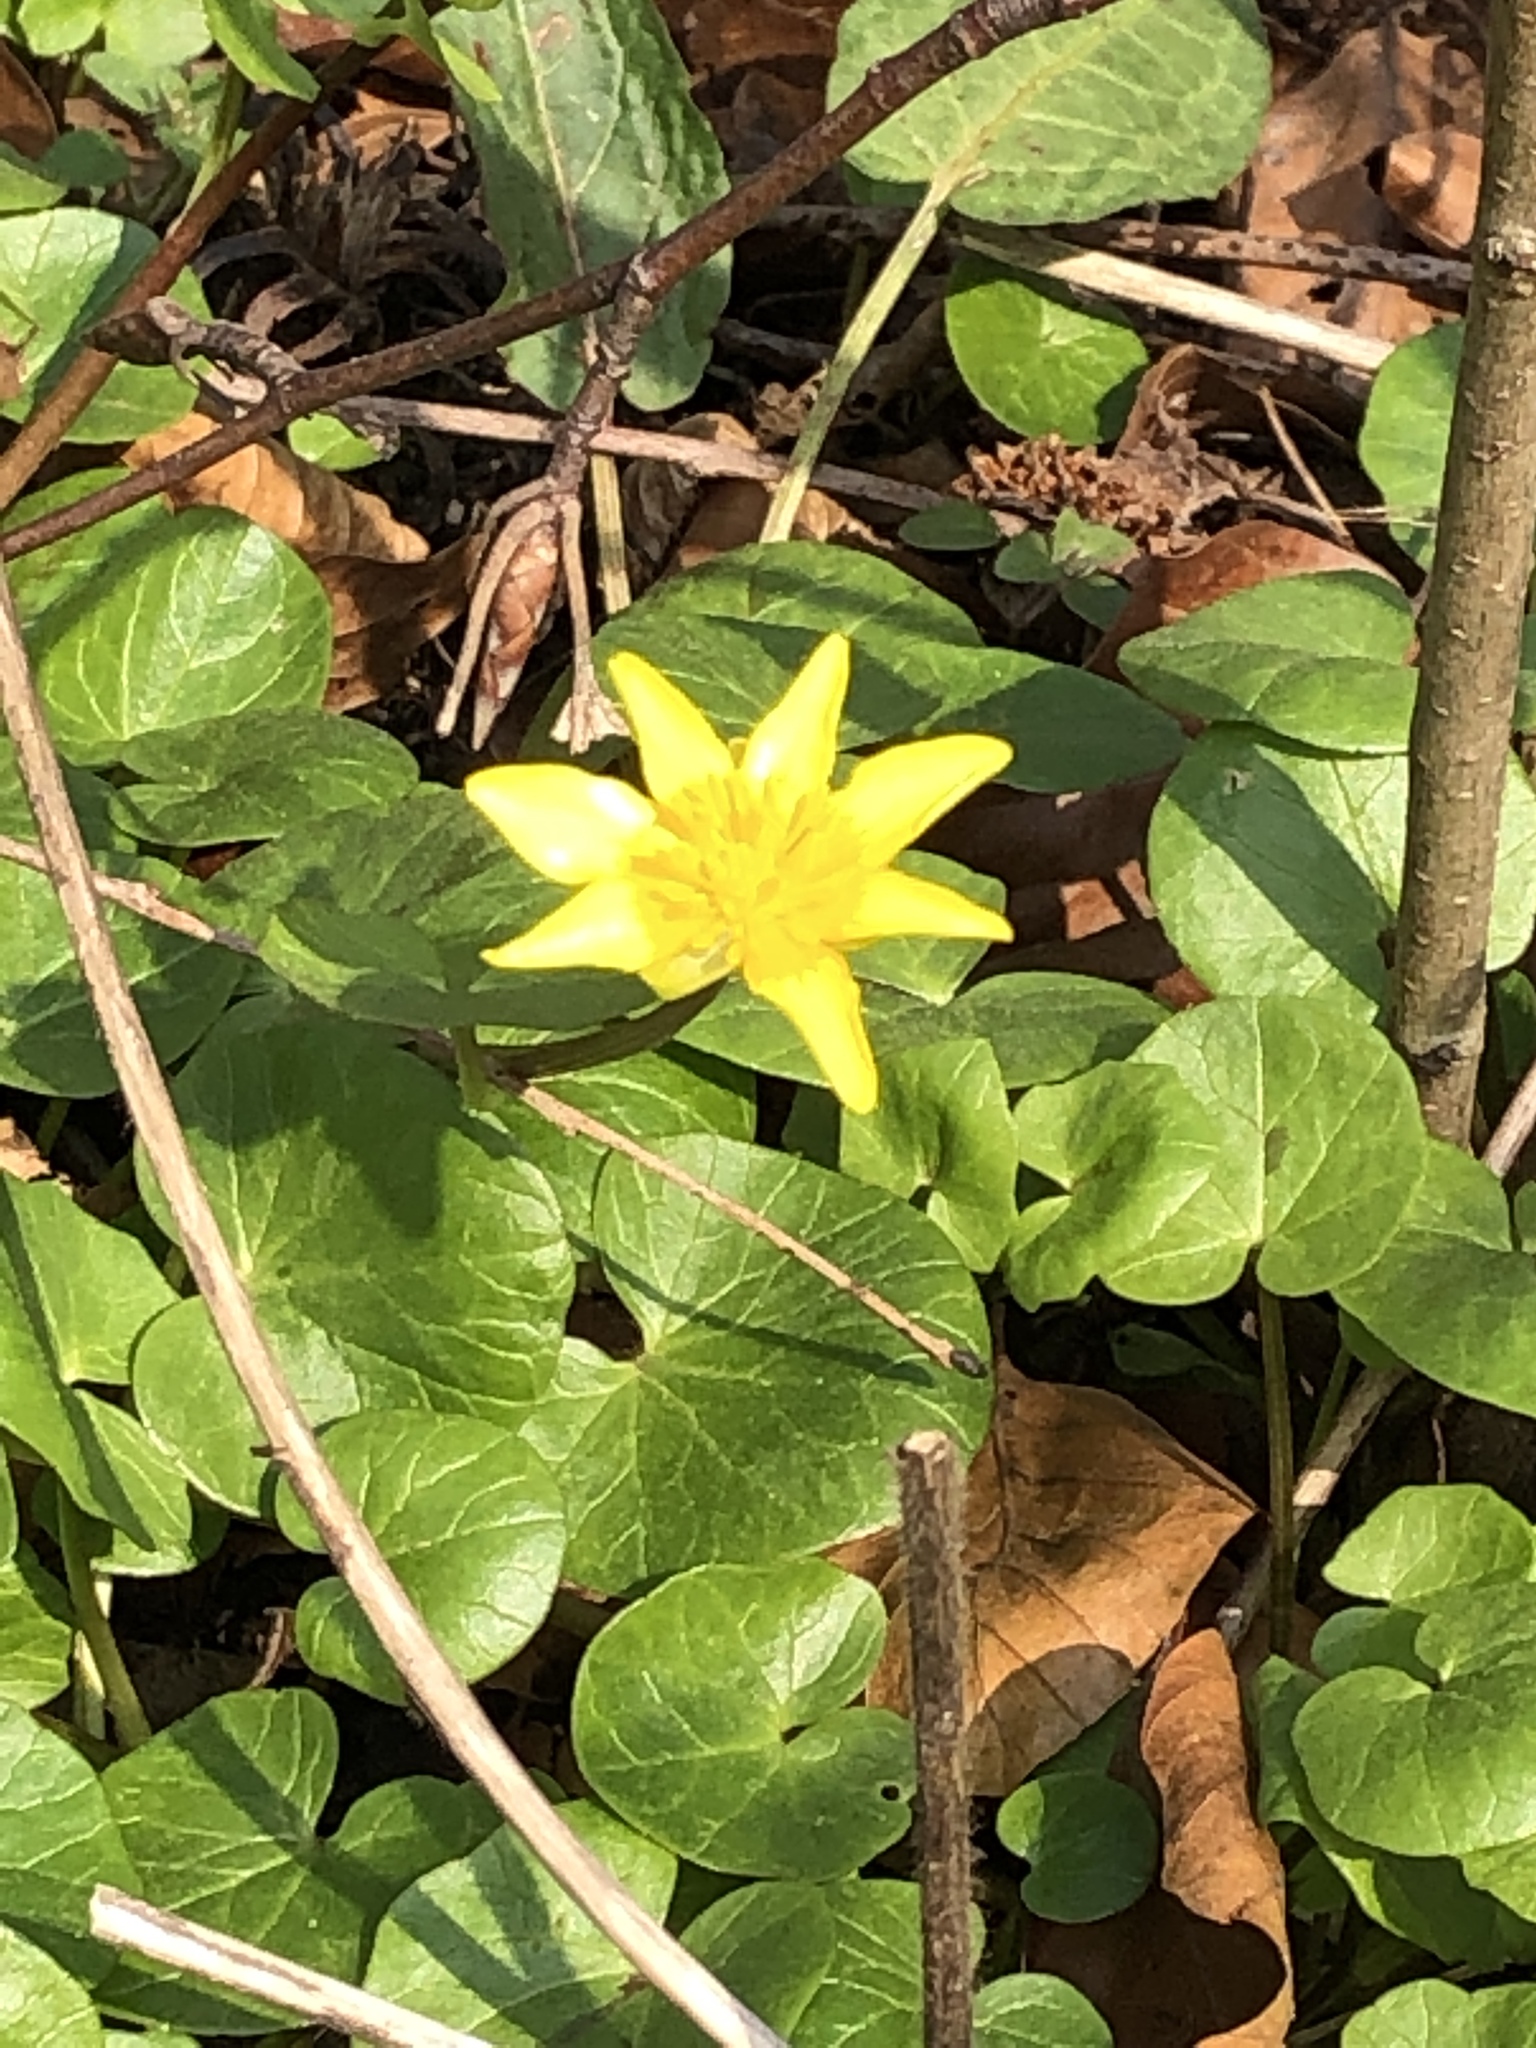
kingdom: Plantae
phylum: Tracheophyta
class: Magnoliopsida
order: Ranunculales
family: Ranunculaceae
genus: Ficaria
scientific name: Ficaria verna
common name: Lesser celandine
